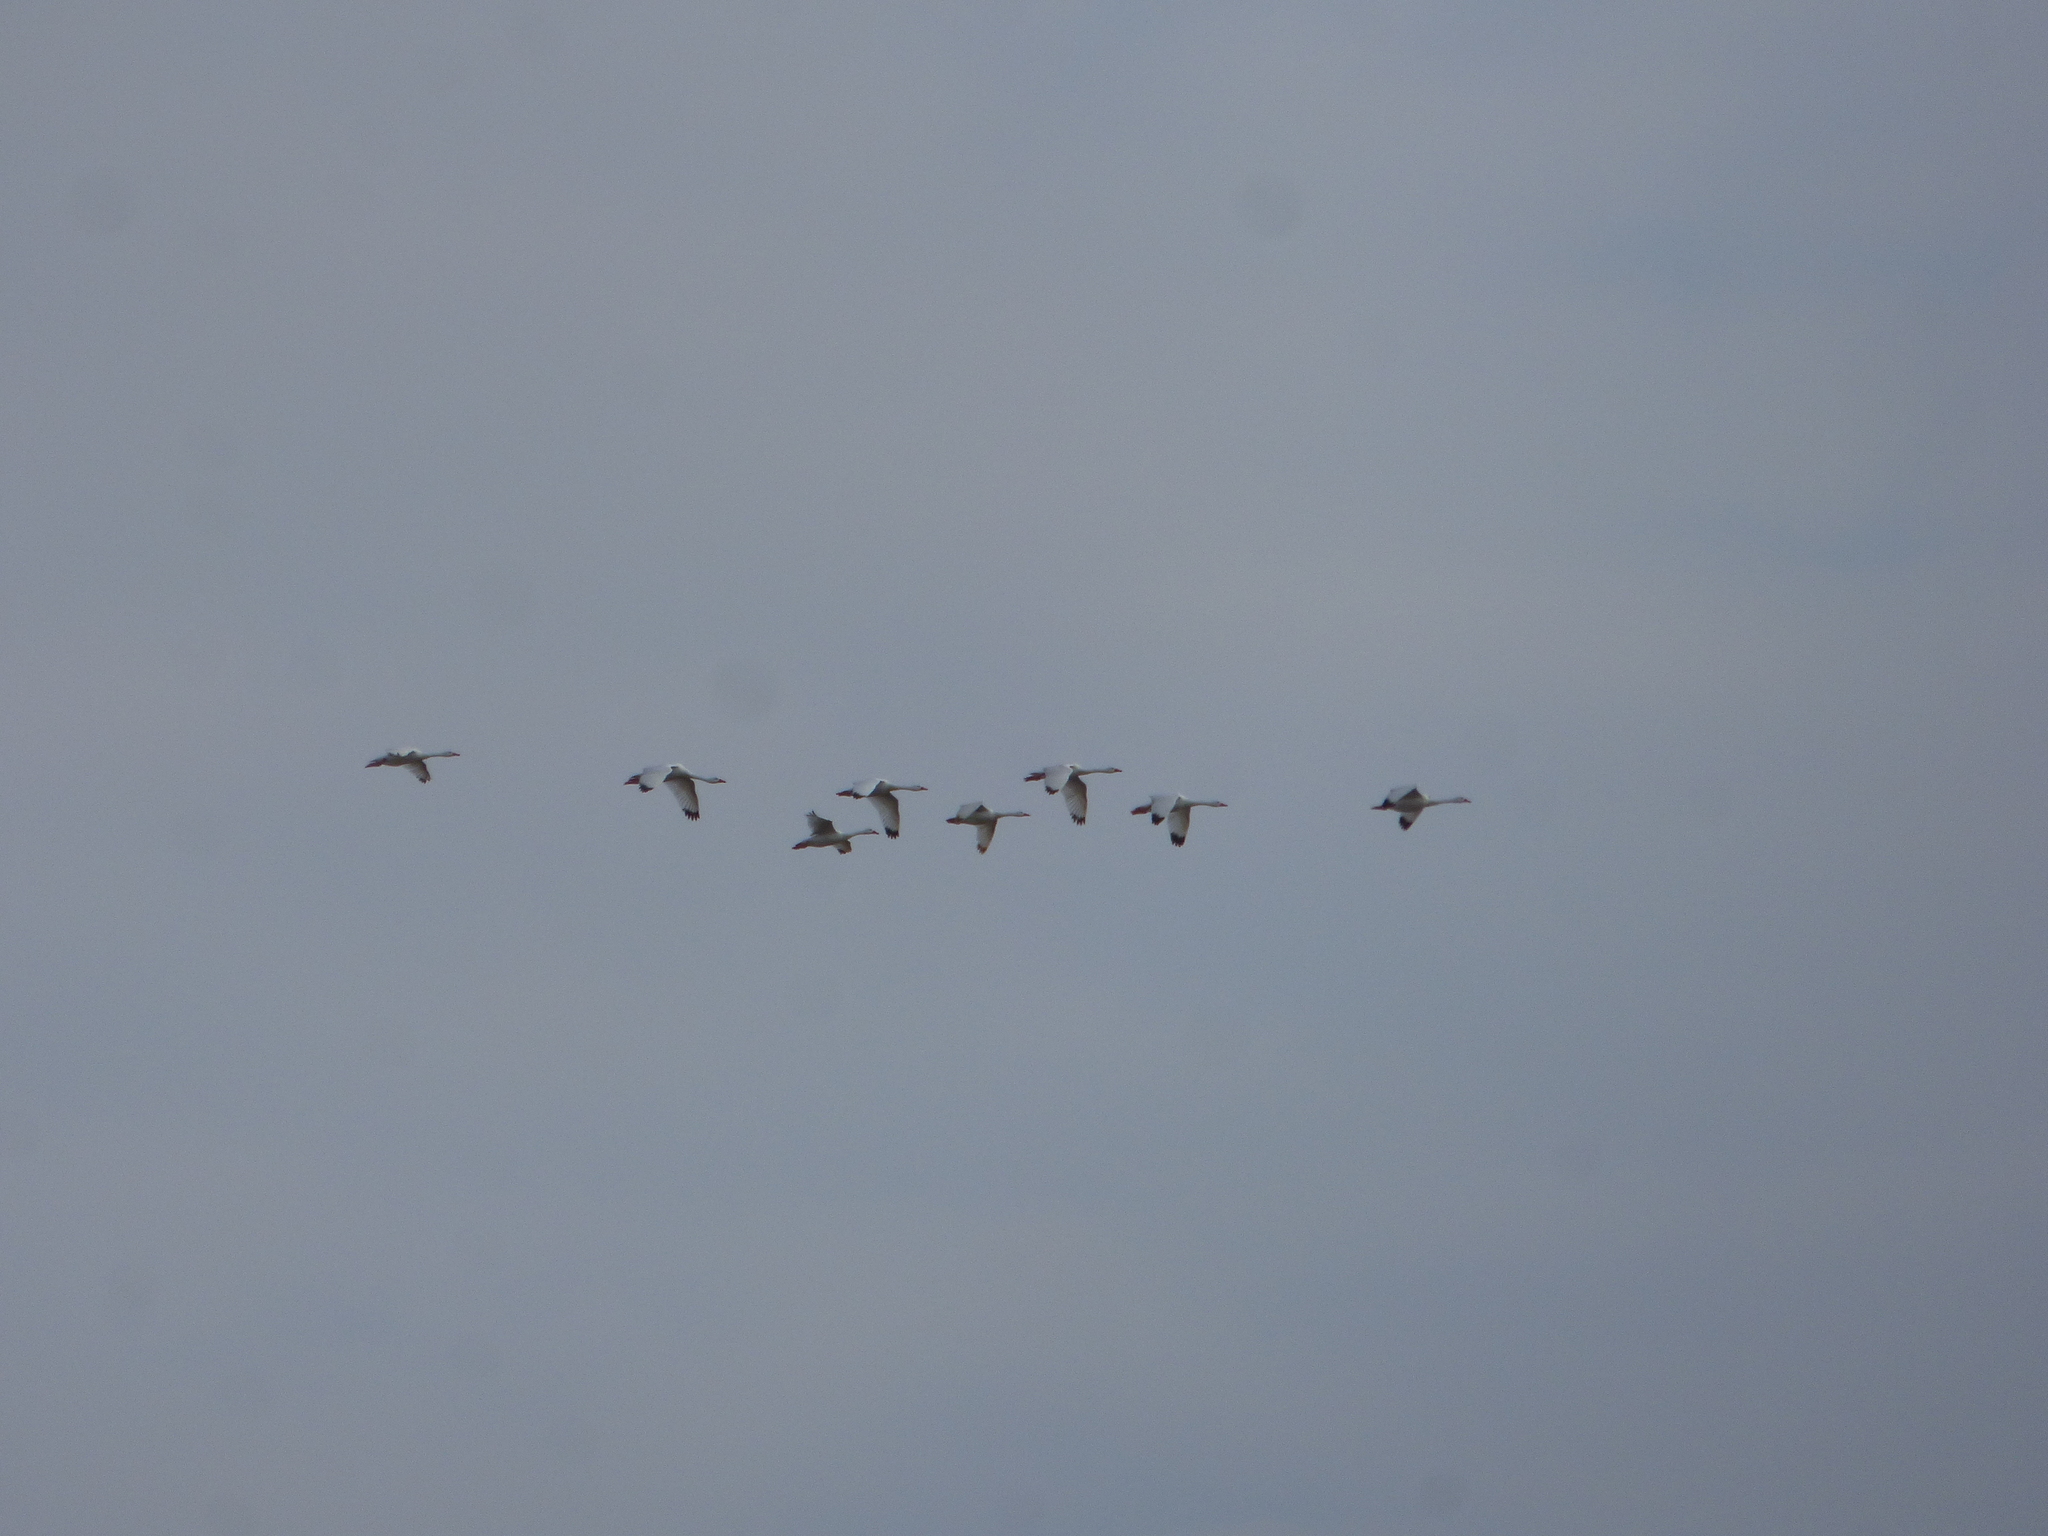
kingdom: Animalia
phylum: Chordata
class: Aves
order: Anseriformes
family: Anatidae
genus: Coscoroba
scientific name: Coscoroba coscoroba
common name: Coscoroba swan
